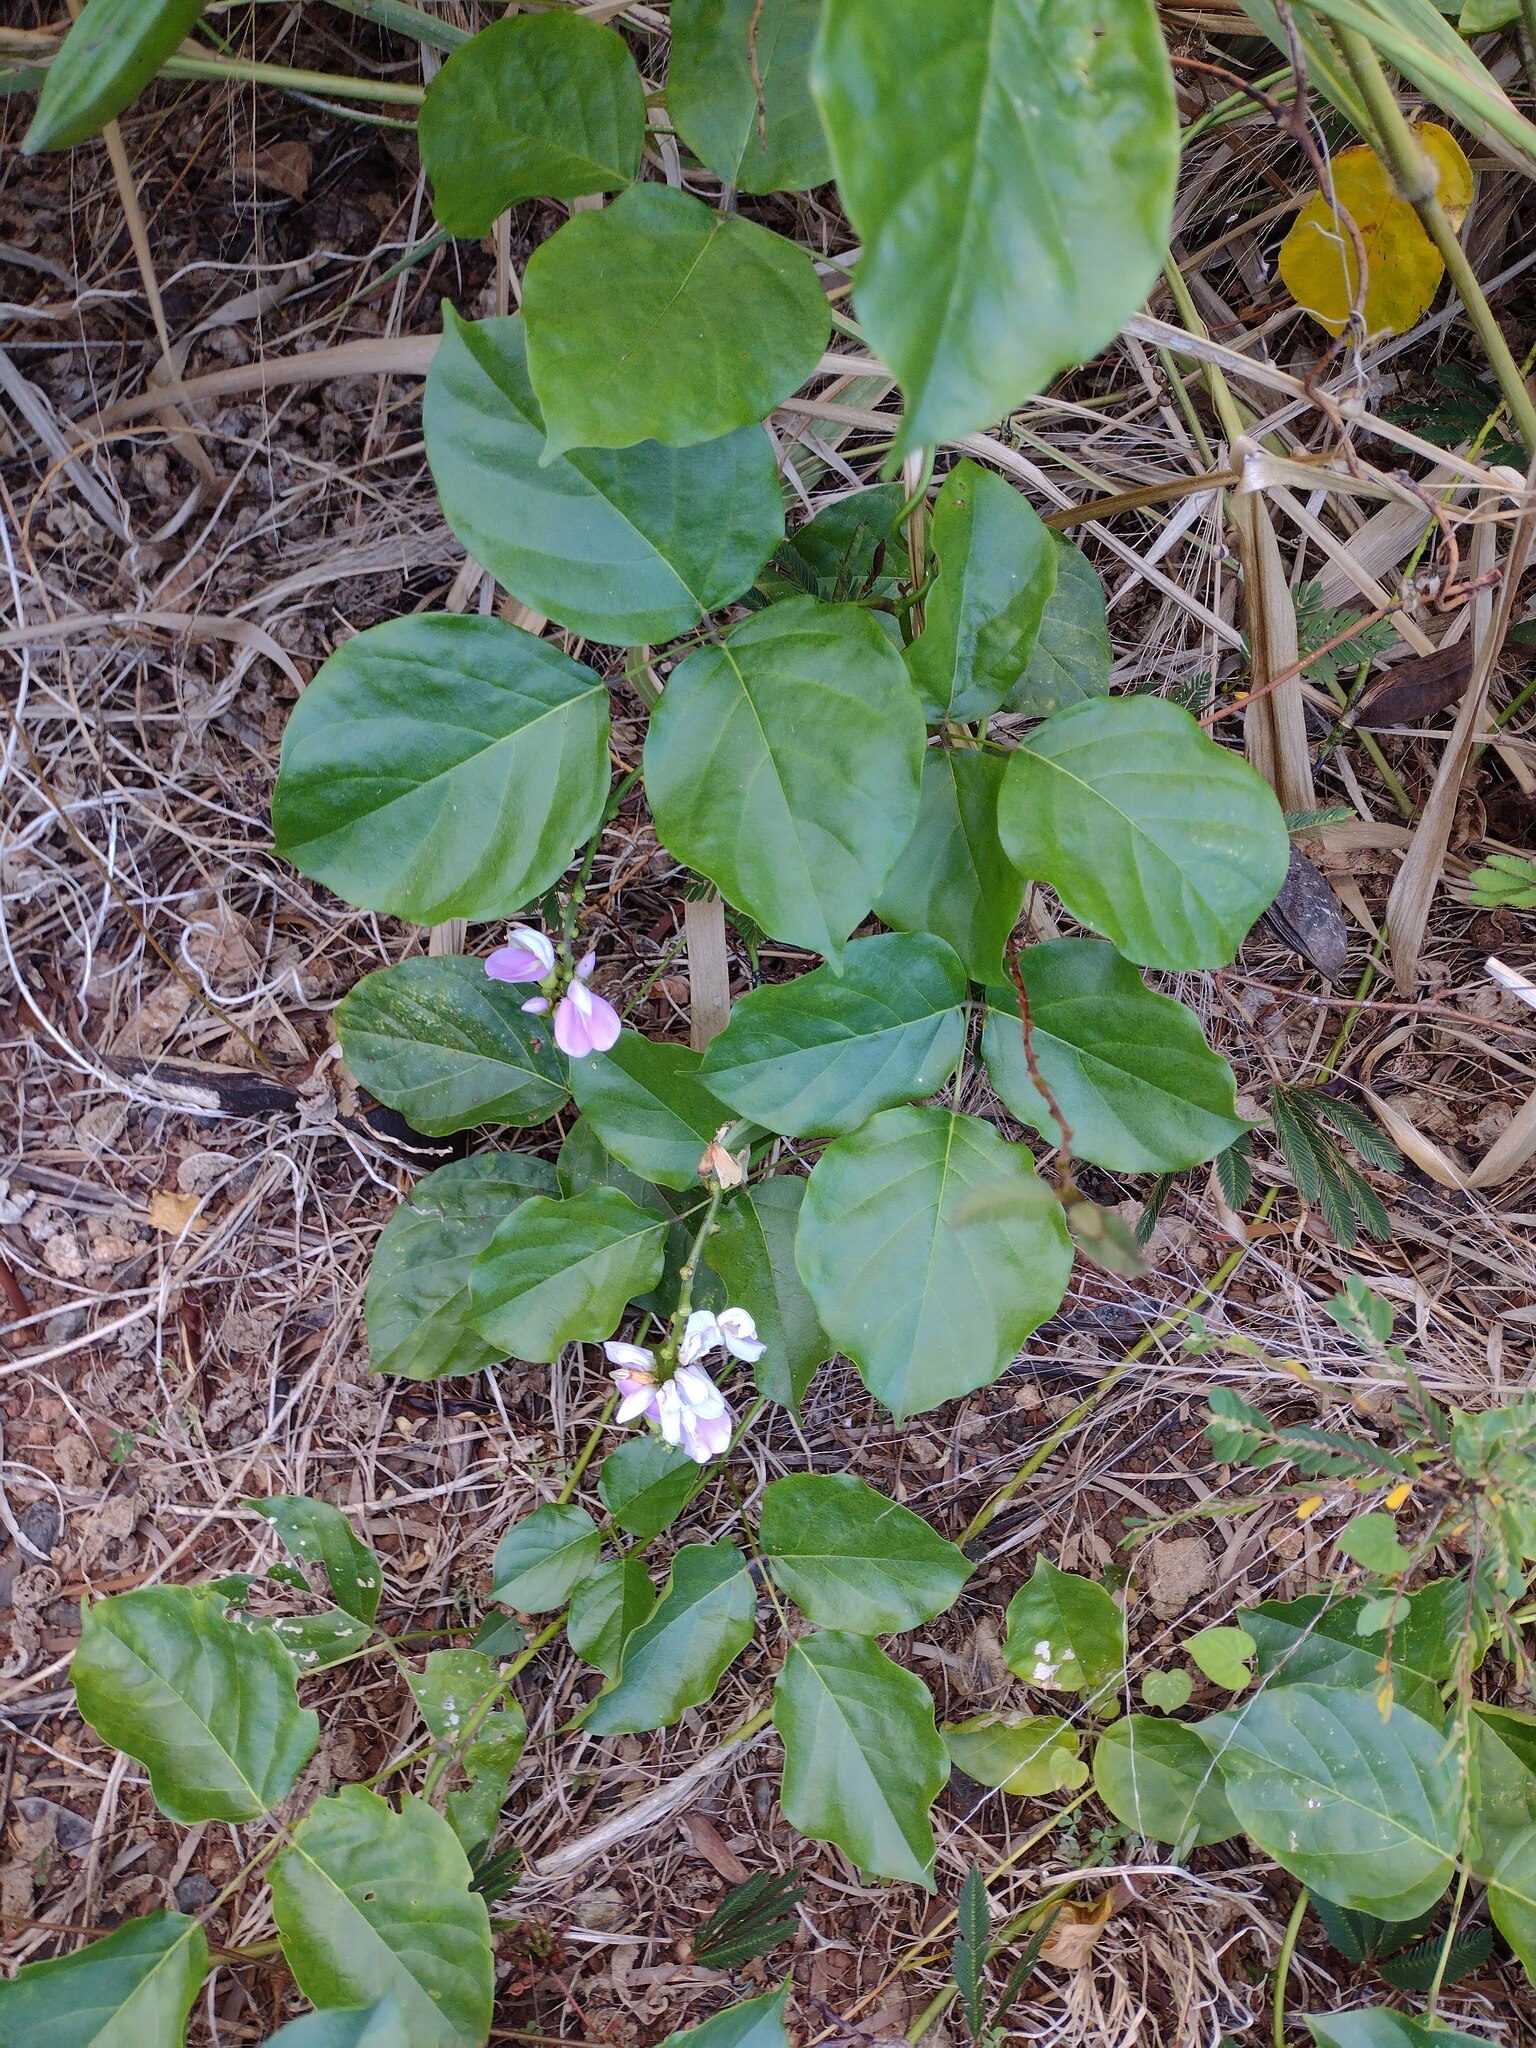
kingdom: Plantae
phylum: Tracheophyta
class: Magnoliopsida
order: Fabales
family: Fabaceae
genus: Canavalia
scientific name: Canavalia cathartica
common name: Maunaloa
